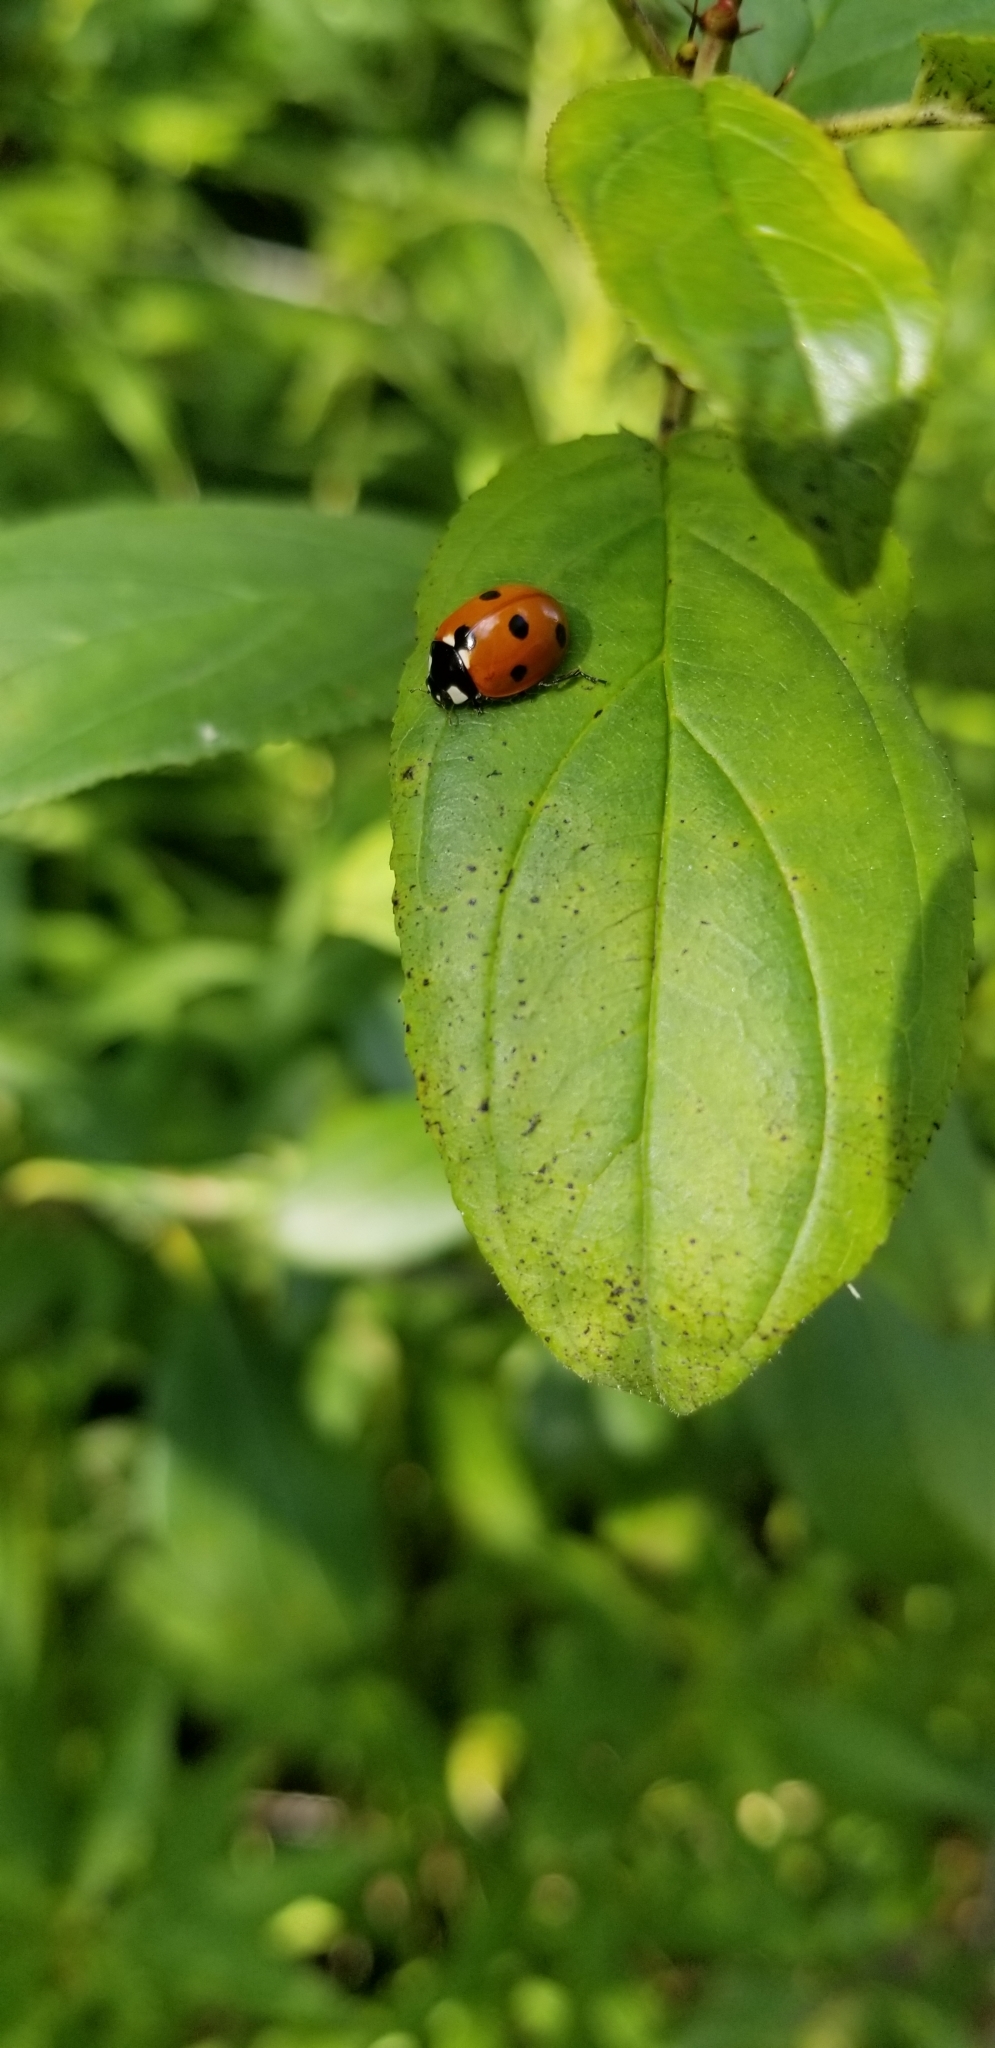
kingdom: Animalia
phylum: Arthropoda
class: Insecta
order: Coleoptera
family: Coccinellidae
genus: Coccinella
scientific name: Coccinella septempunctata
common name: Sevenspotted lady beetle
